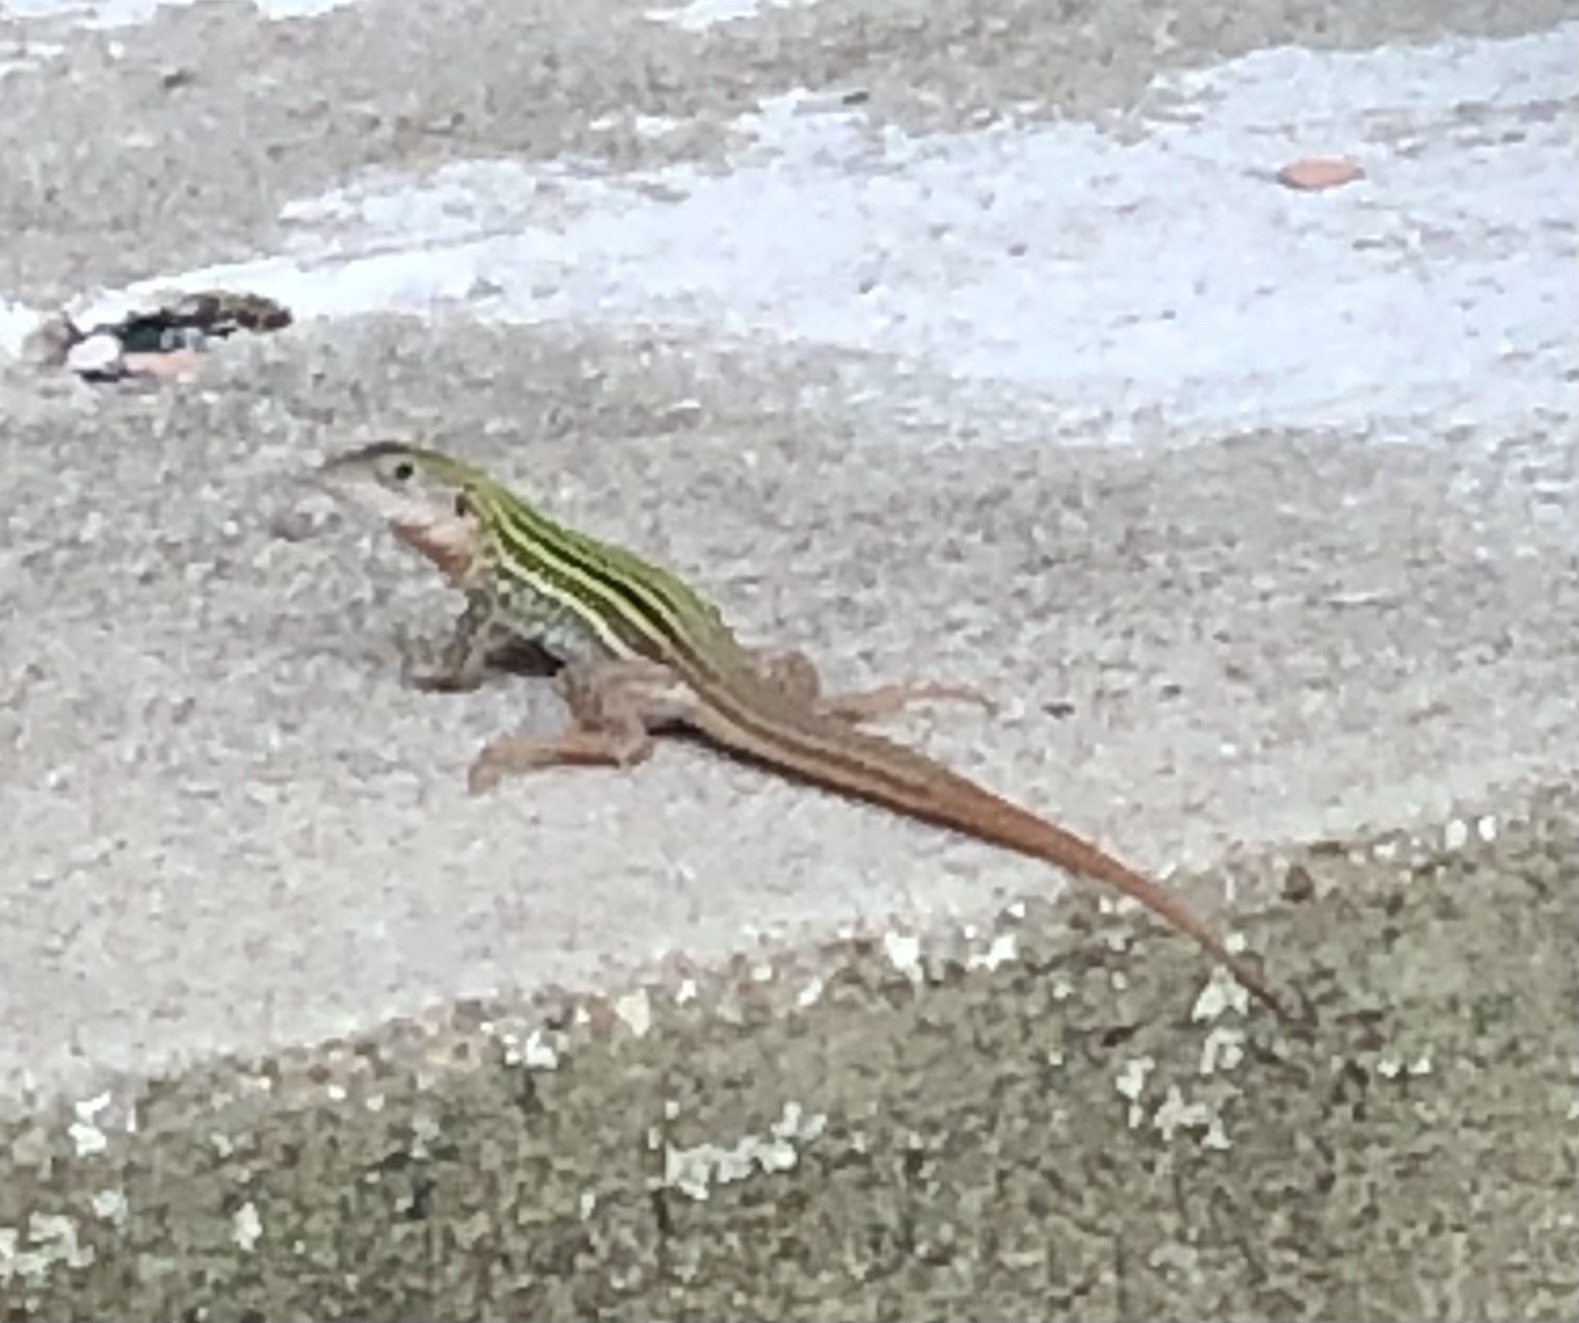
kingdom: Animalia
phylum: Chordata
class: Squamata
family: Teiidae
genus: Aspidoscelis
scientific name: Aspidoscelis gularis
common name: Eastern spotted whiptail
